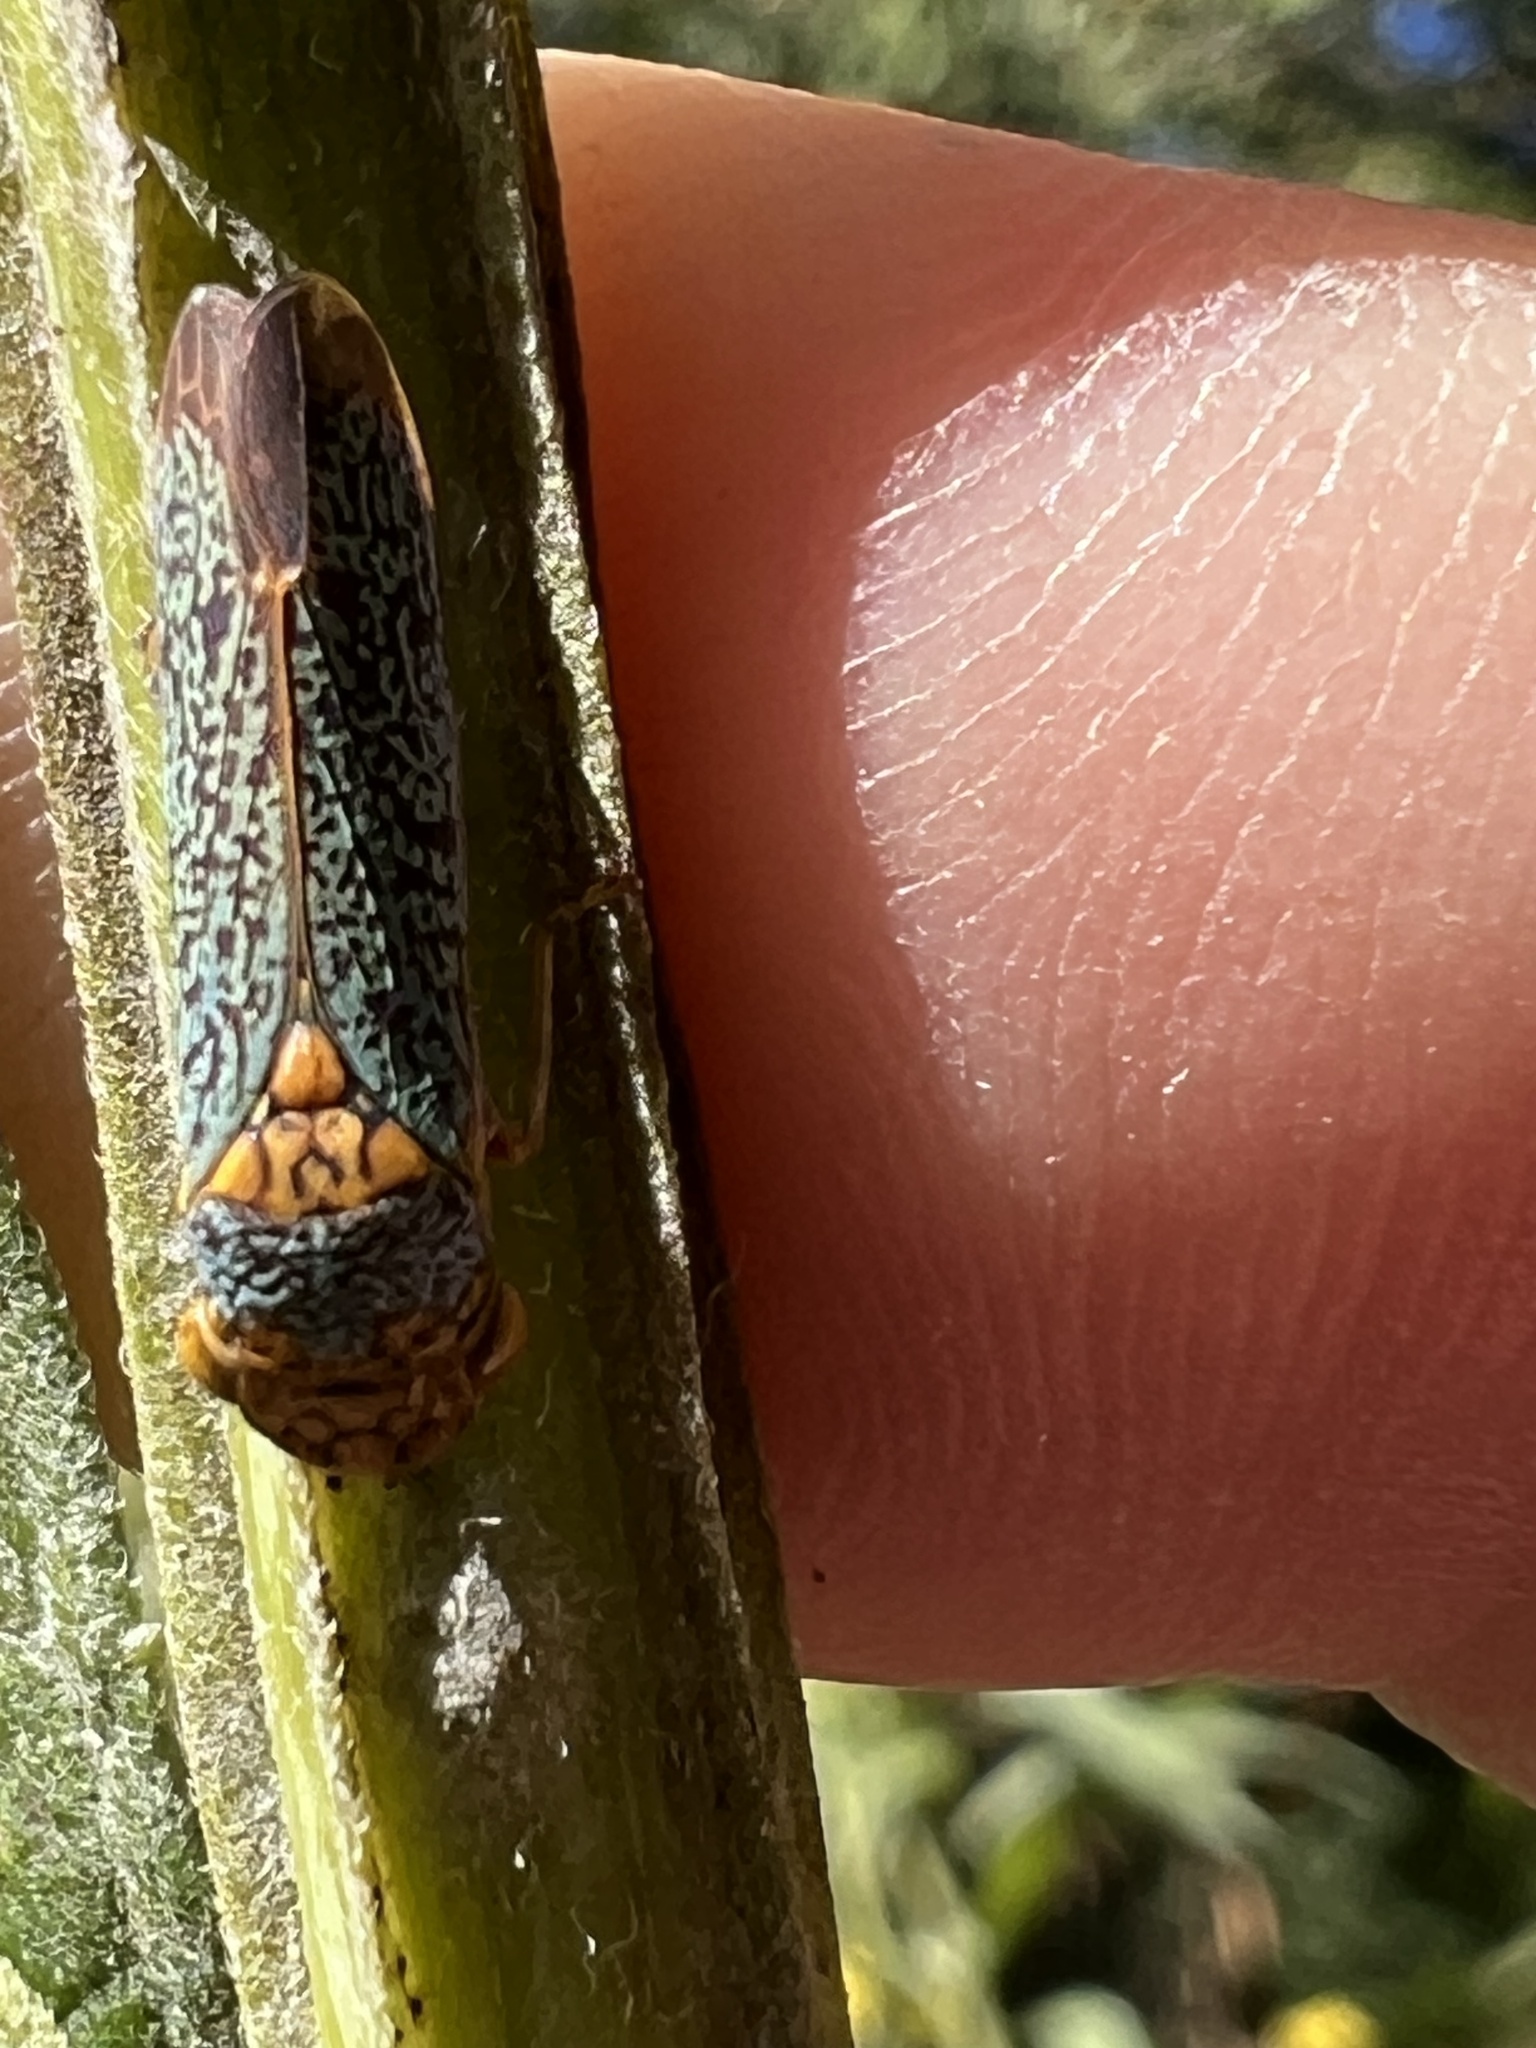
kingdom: Animalia
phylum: Arthropoda
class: Insecta
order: Hemiptera
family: Cicadellidae
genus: Oncometopia
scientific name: Oncometopia orbona
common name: Broad-headed sharpshooter
